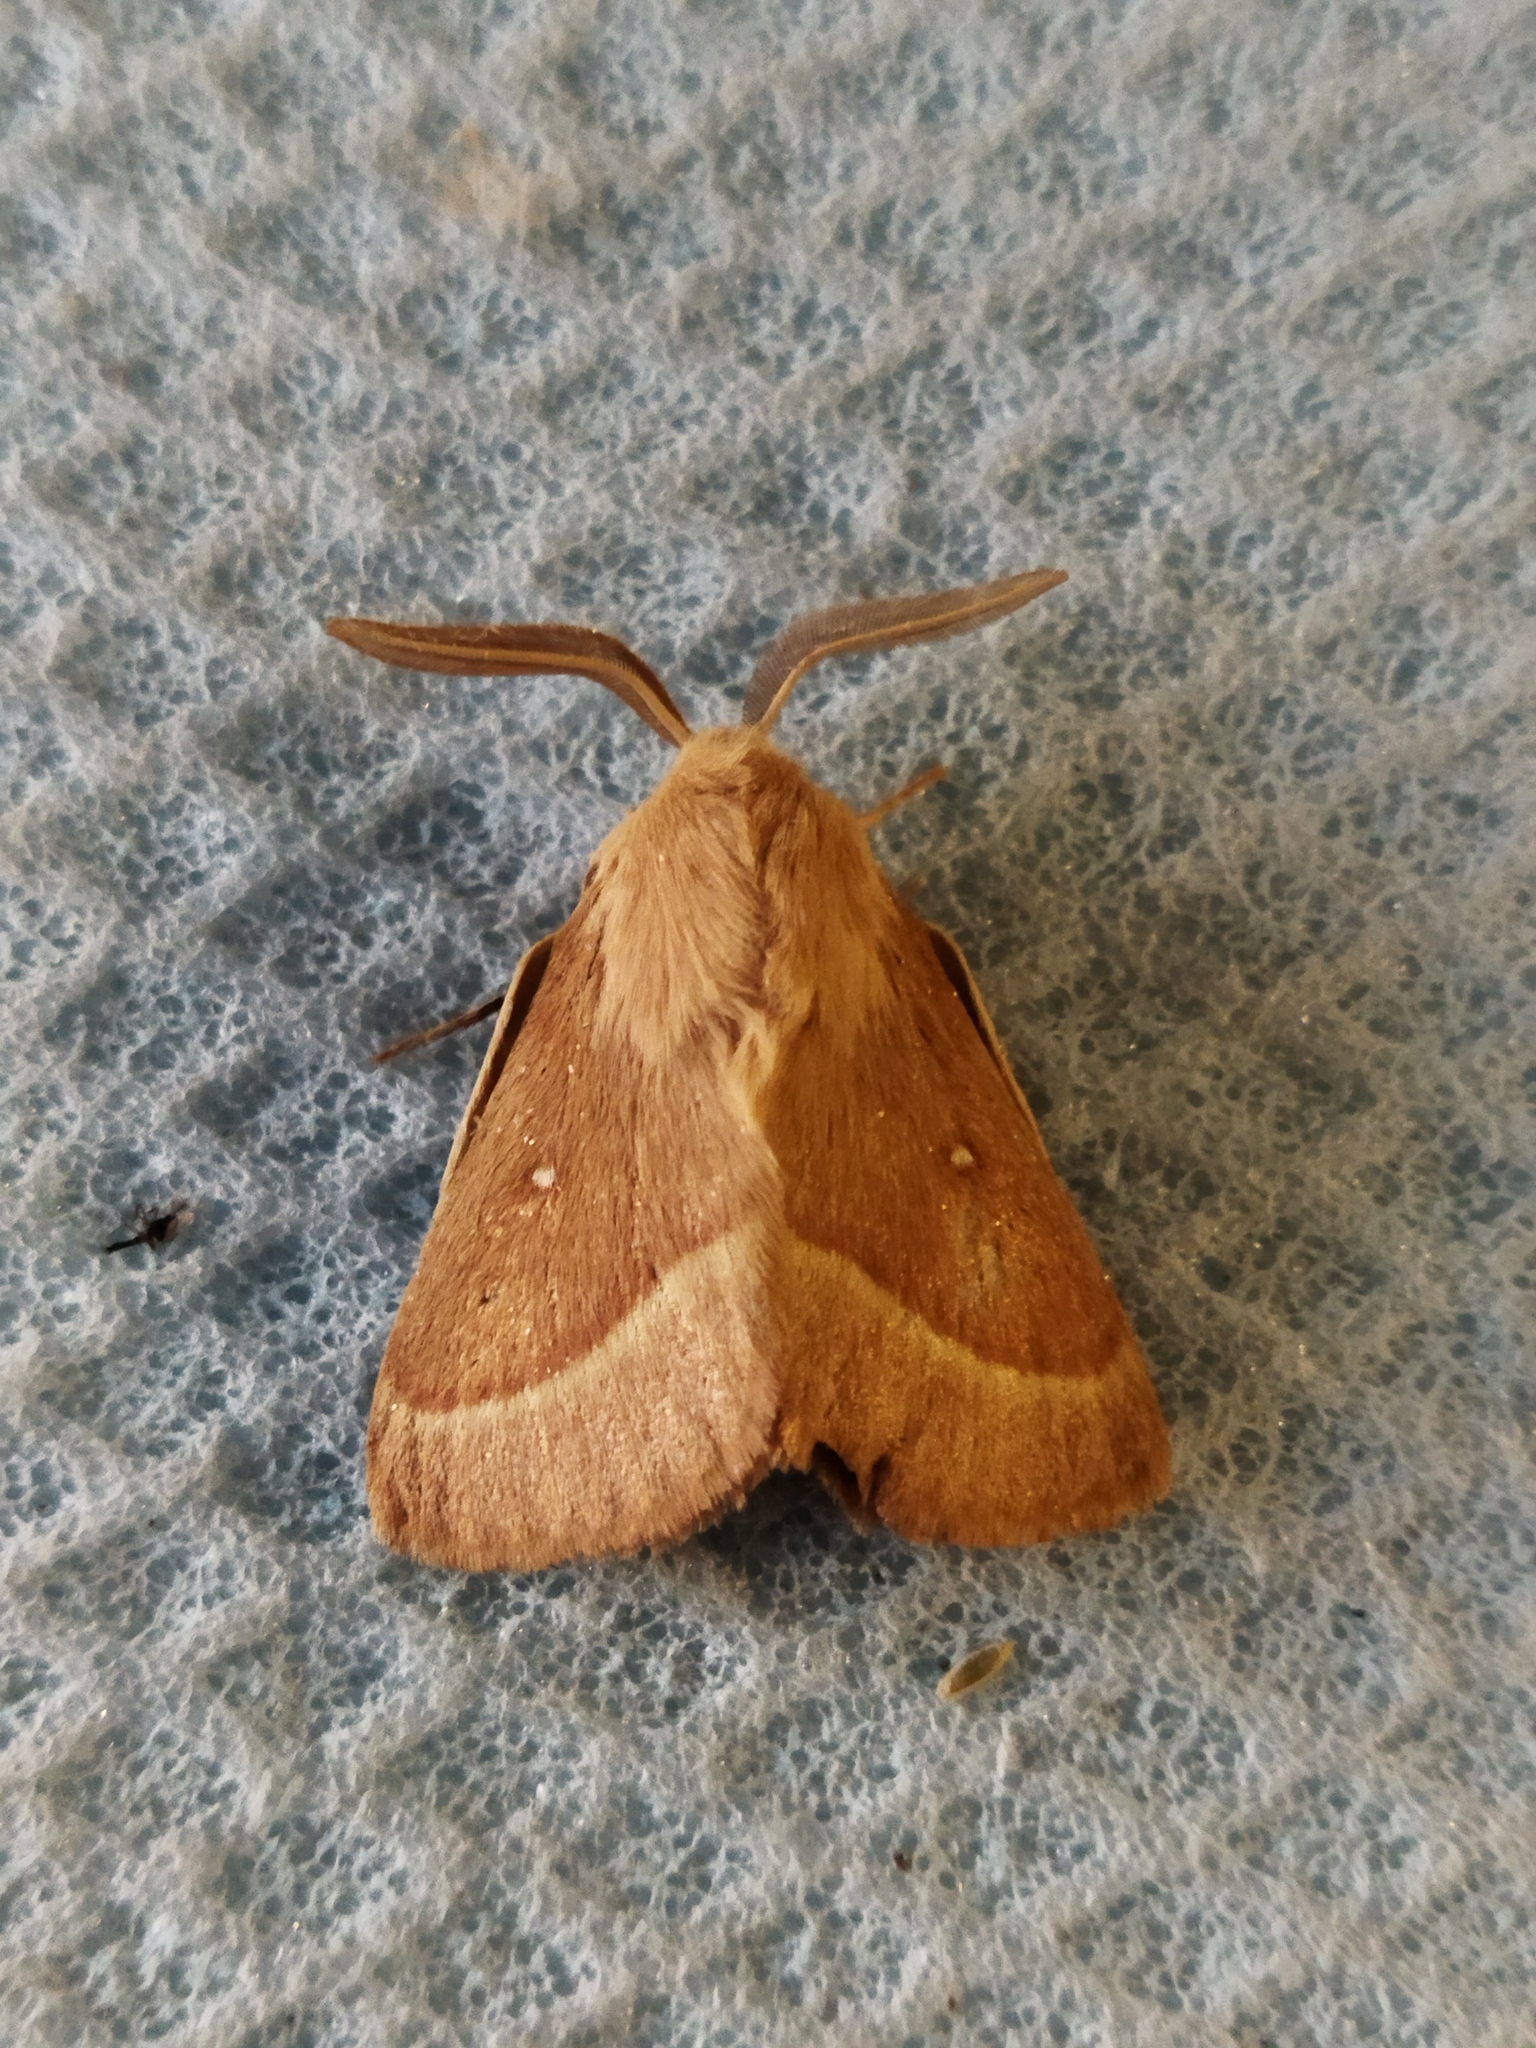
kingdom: Animalia
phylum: Arthropoda
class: Insecta
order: Lepidoptera
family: Lasiocampidae
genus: Lasiocampa
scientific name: Lasiocampa trifolii
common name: Grass eggar
